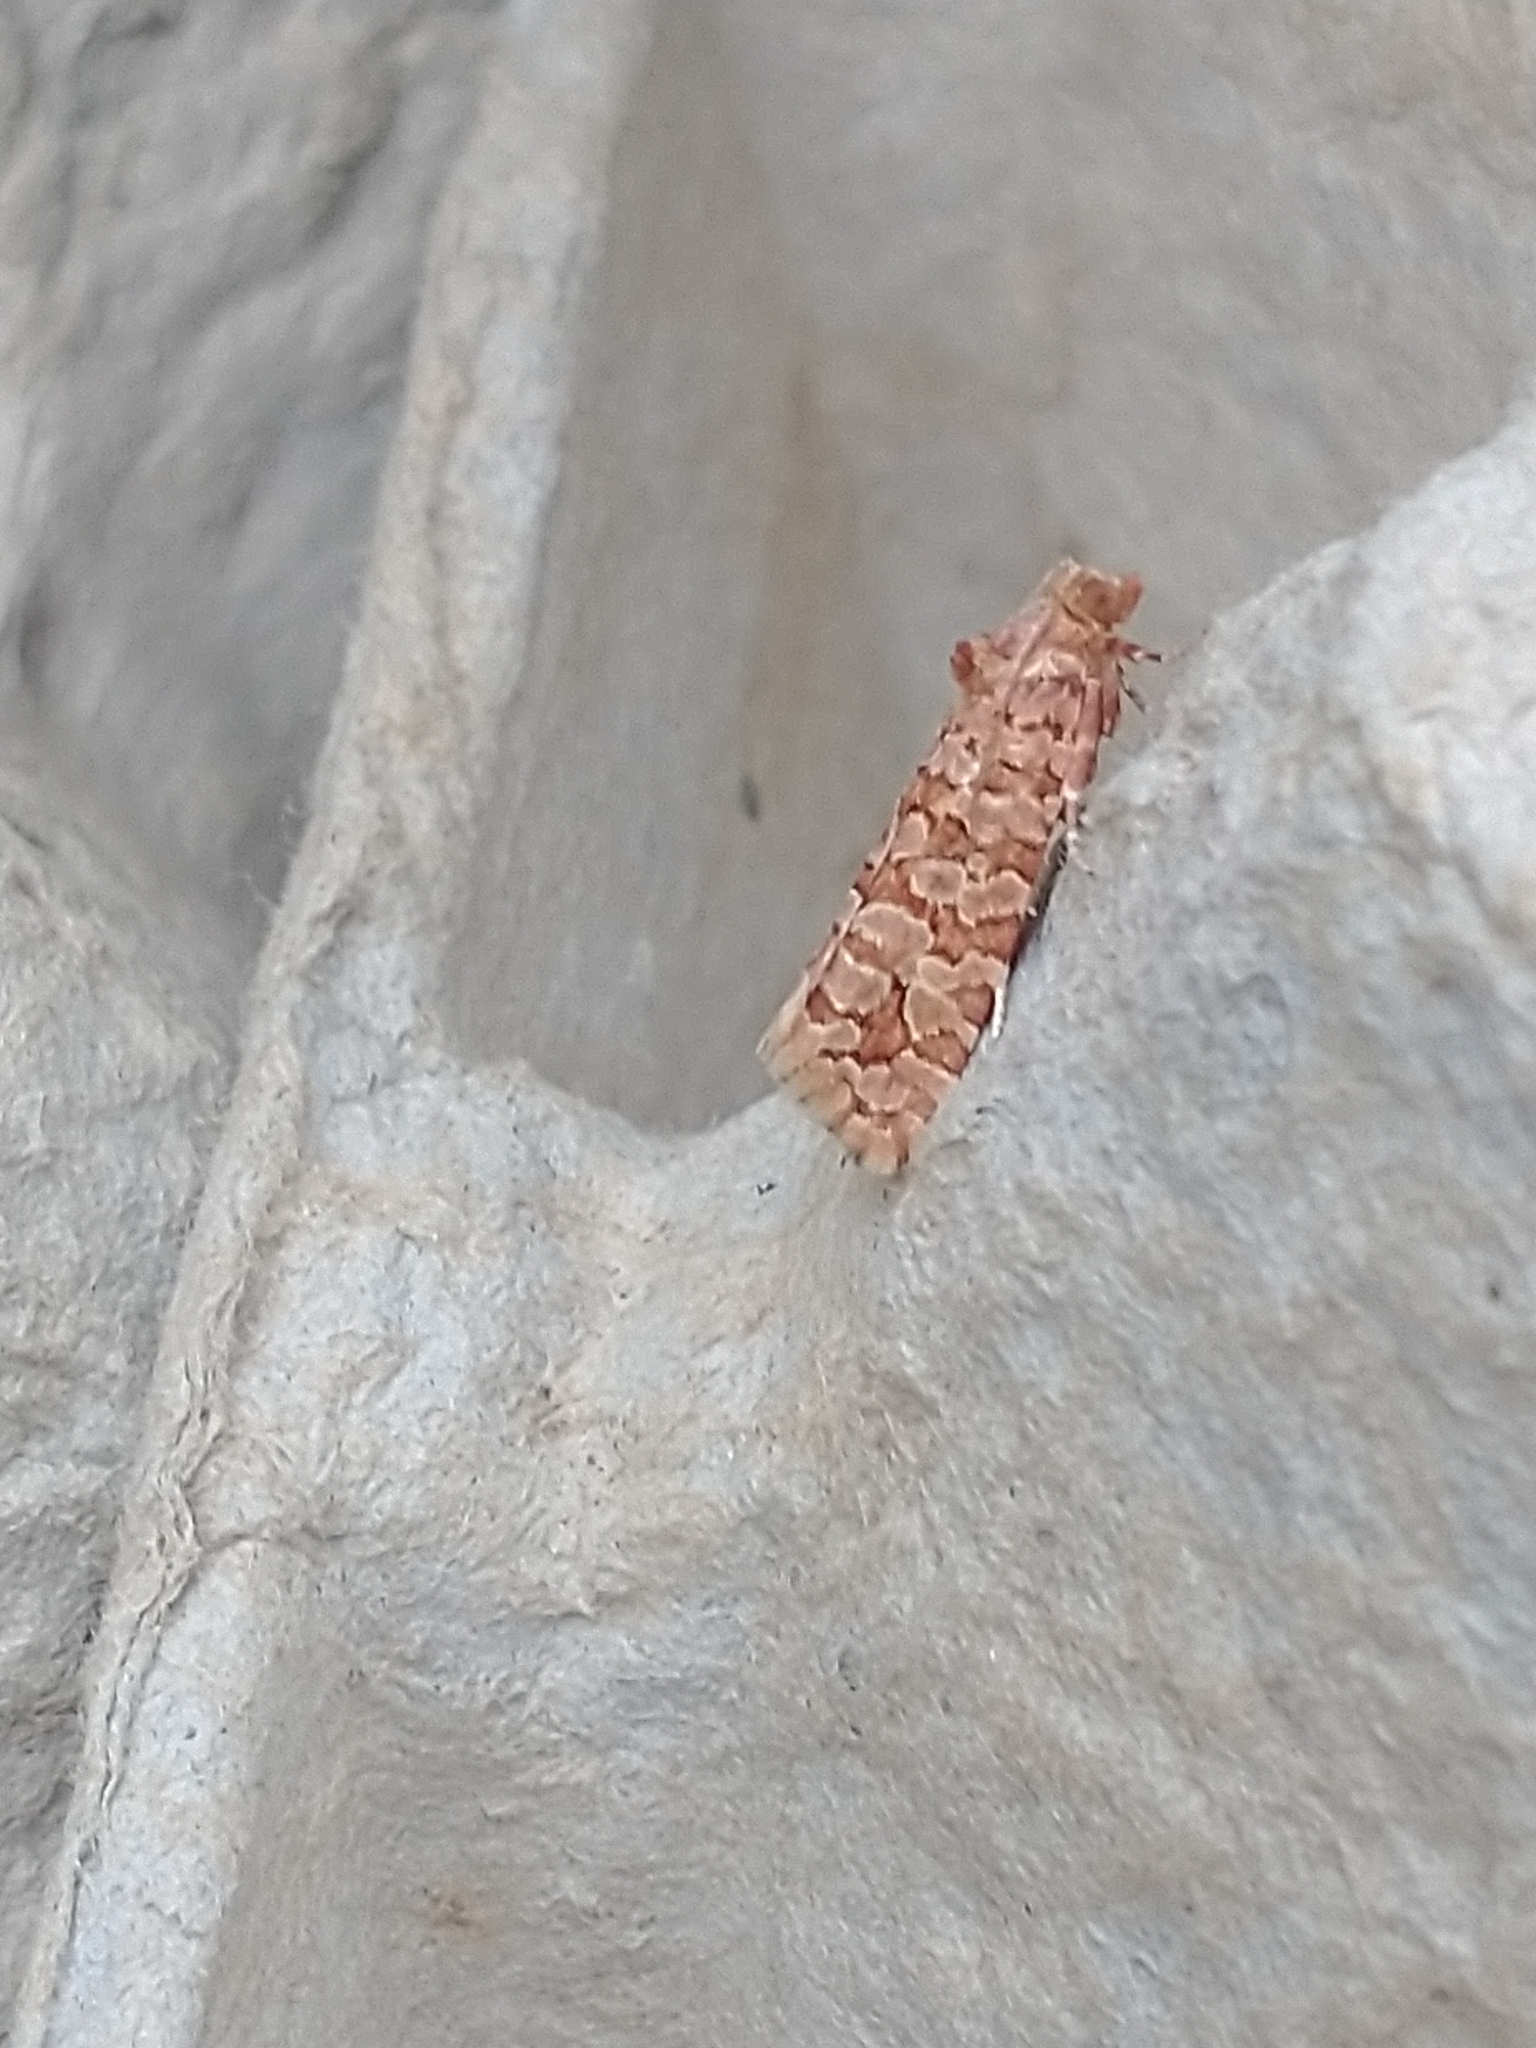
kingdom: Animalia
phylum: Arthropoda
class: Insecta
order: Lepidoptera
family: Tortricidae
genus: Lozotaeniodes
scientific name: Lozotaeniodes formosana
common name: Orange pine twist
